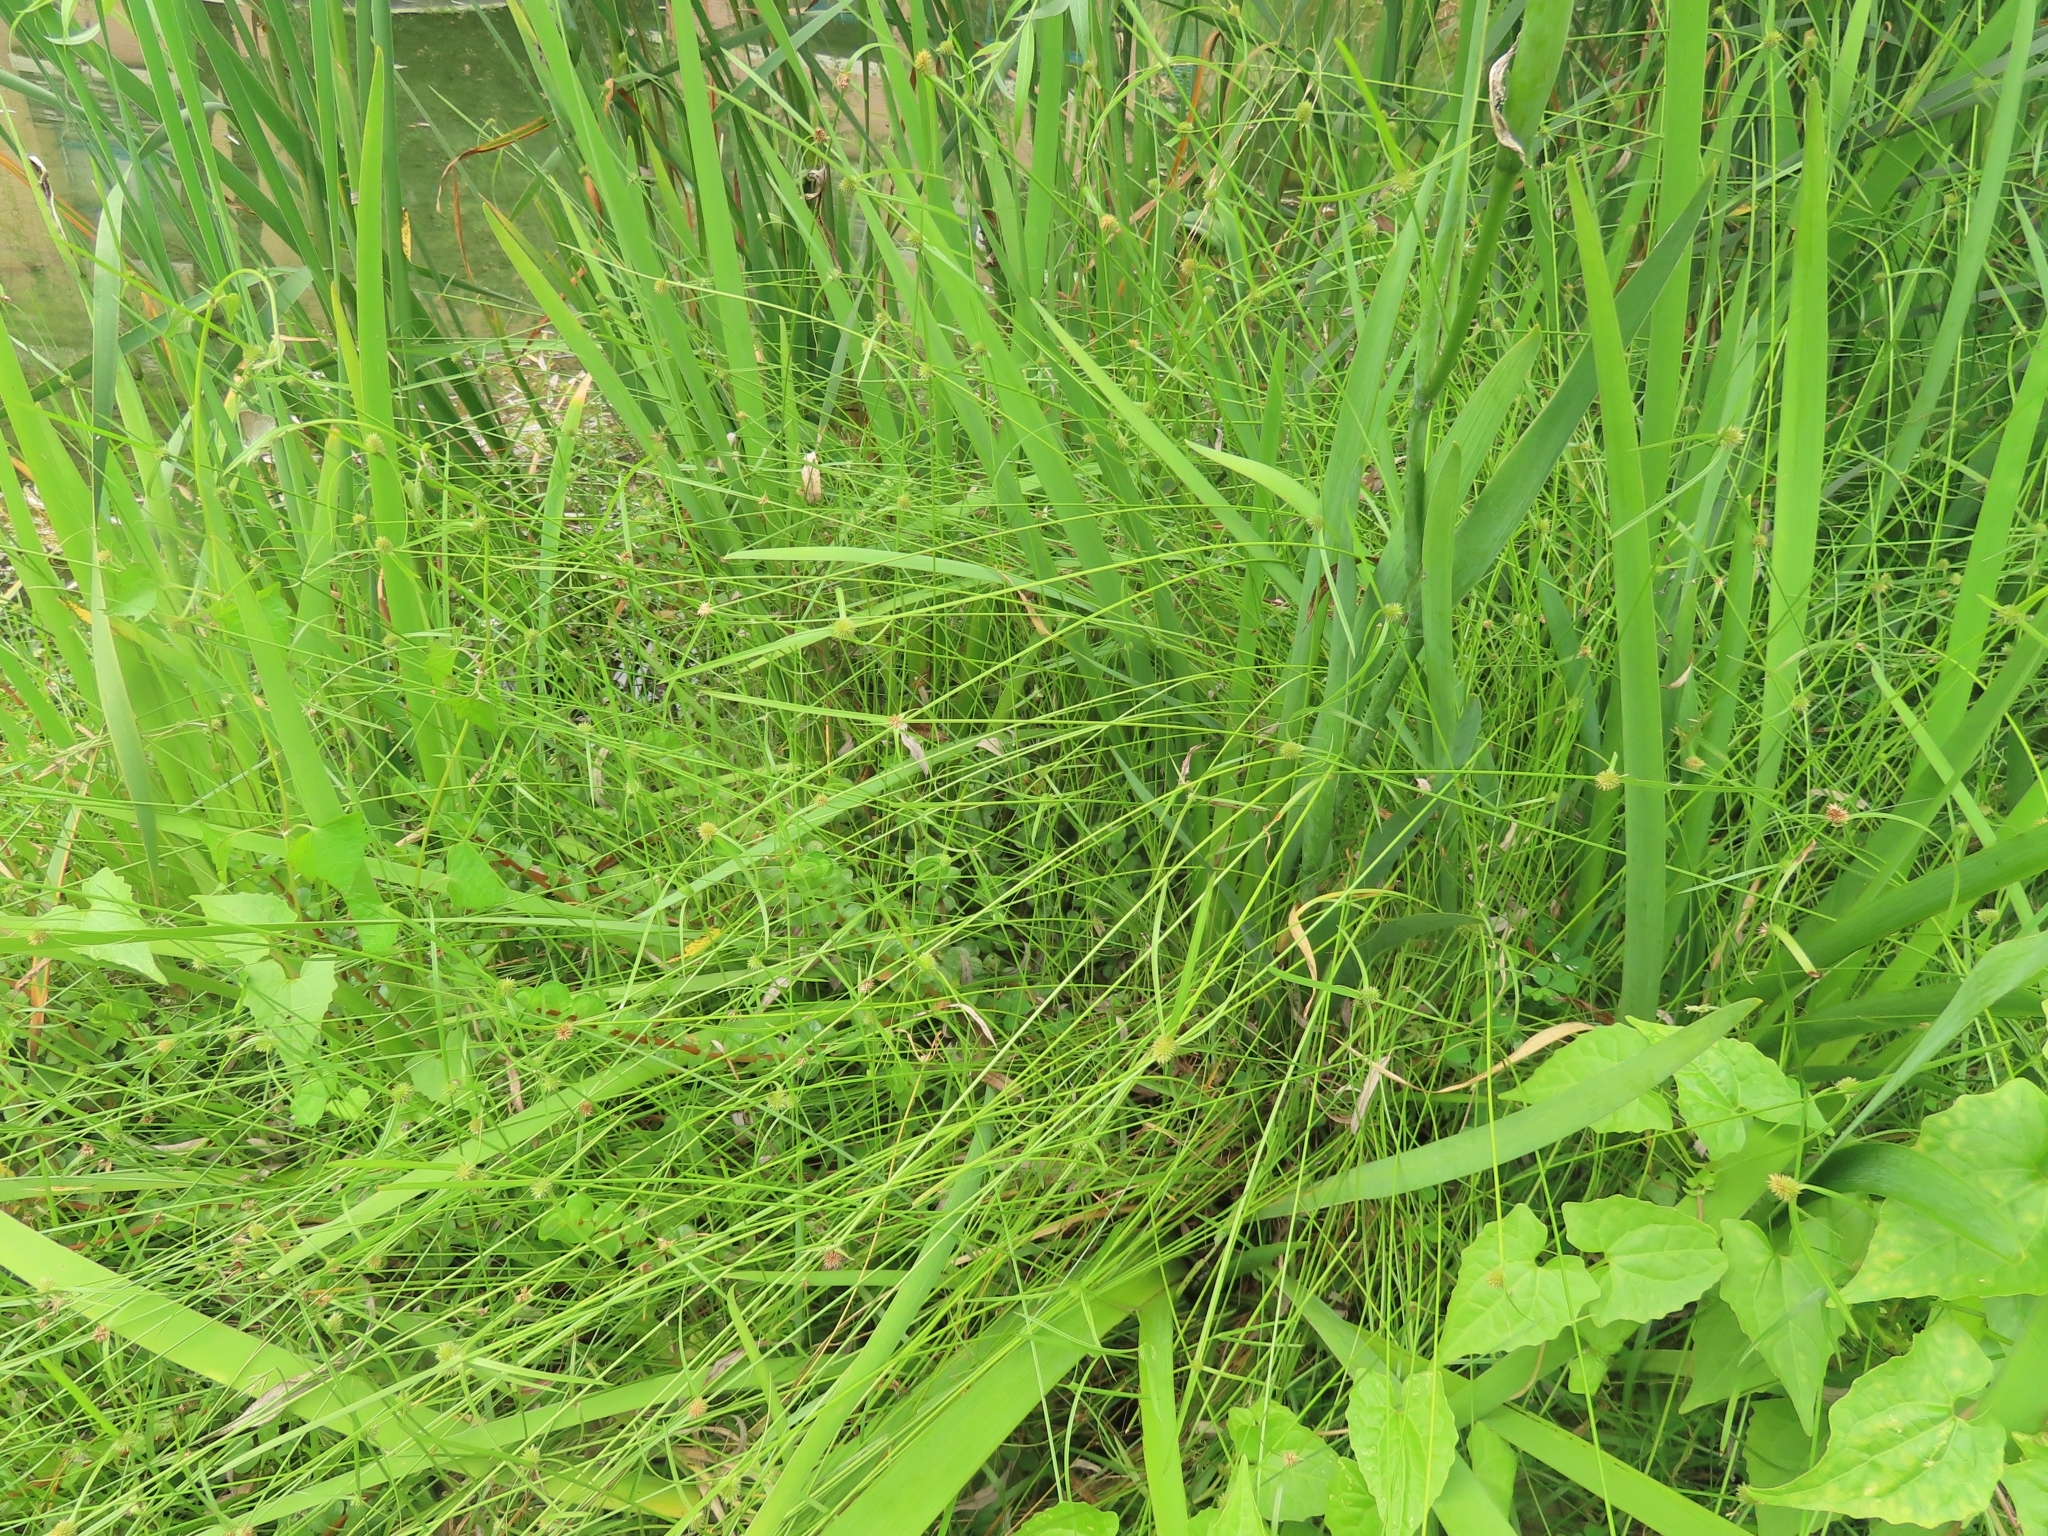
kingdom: Plantae
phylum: Tracheophyta
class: Liliopsida
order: Poales
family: Cyperaceae
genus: Cyperus
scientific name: Cyperus brevifolius
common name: Globe kyllinga
